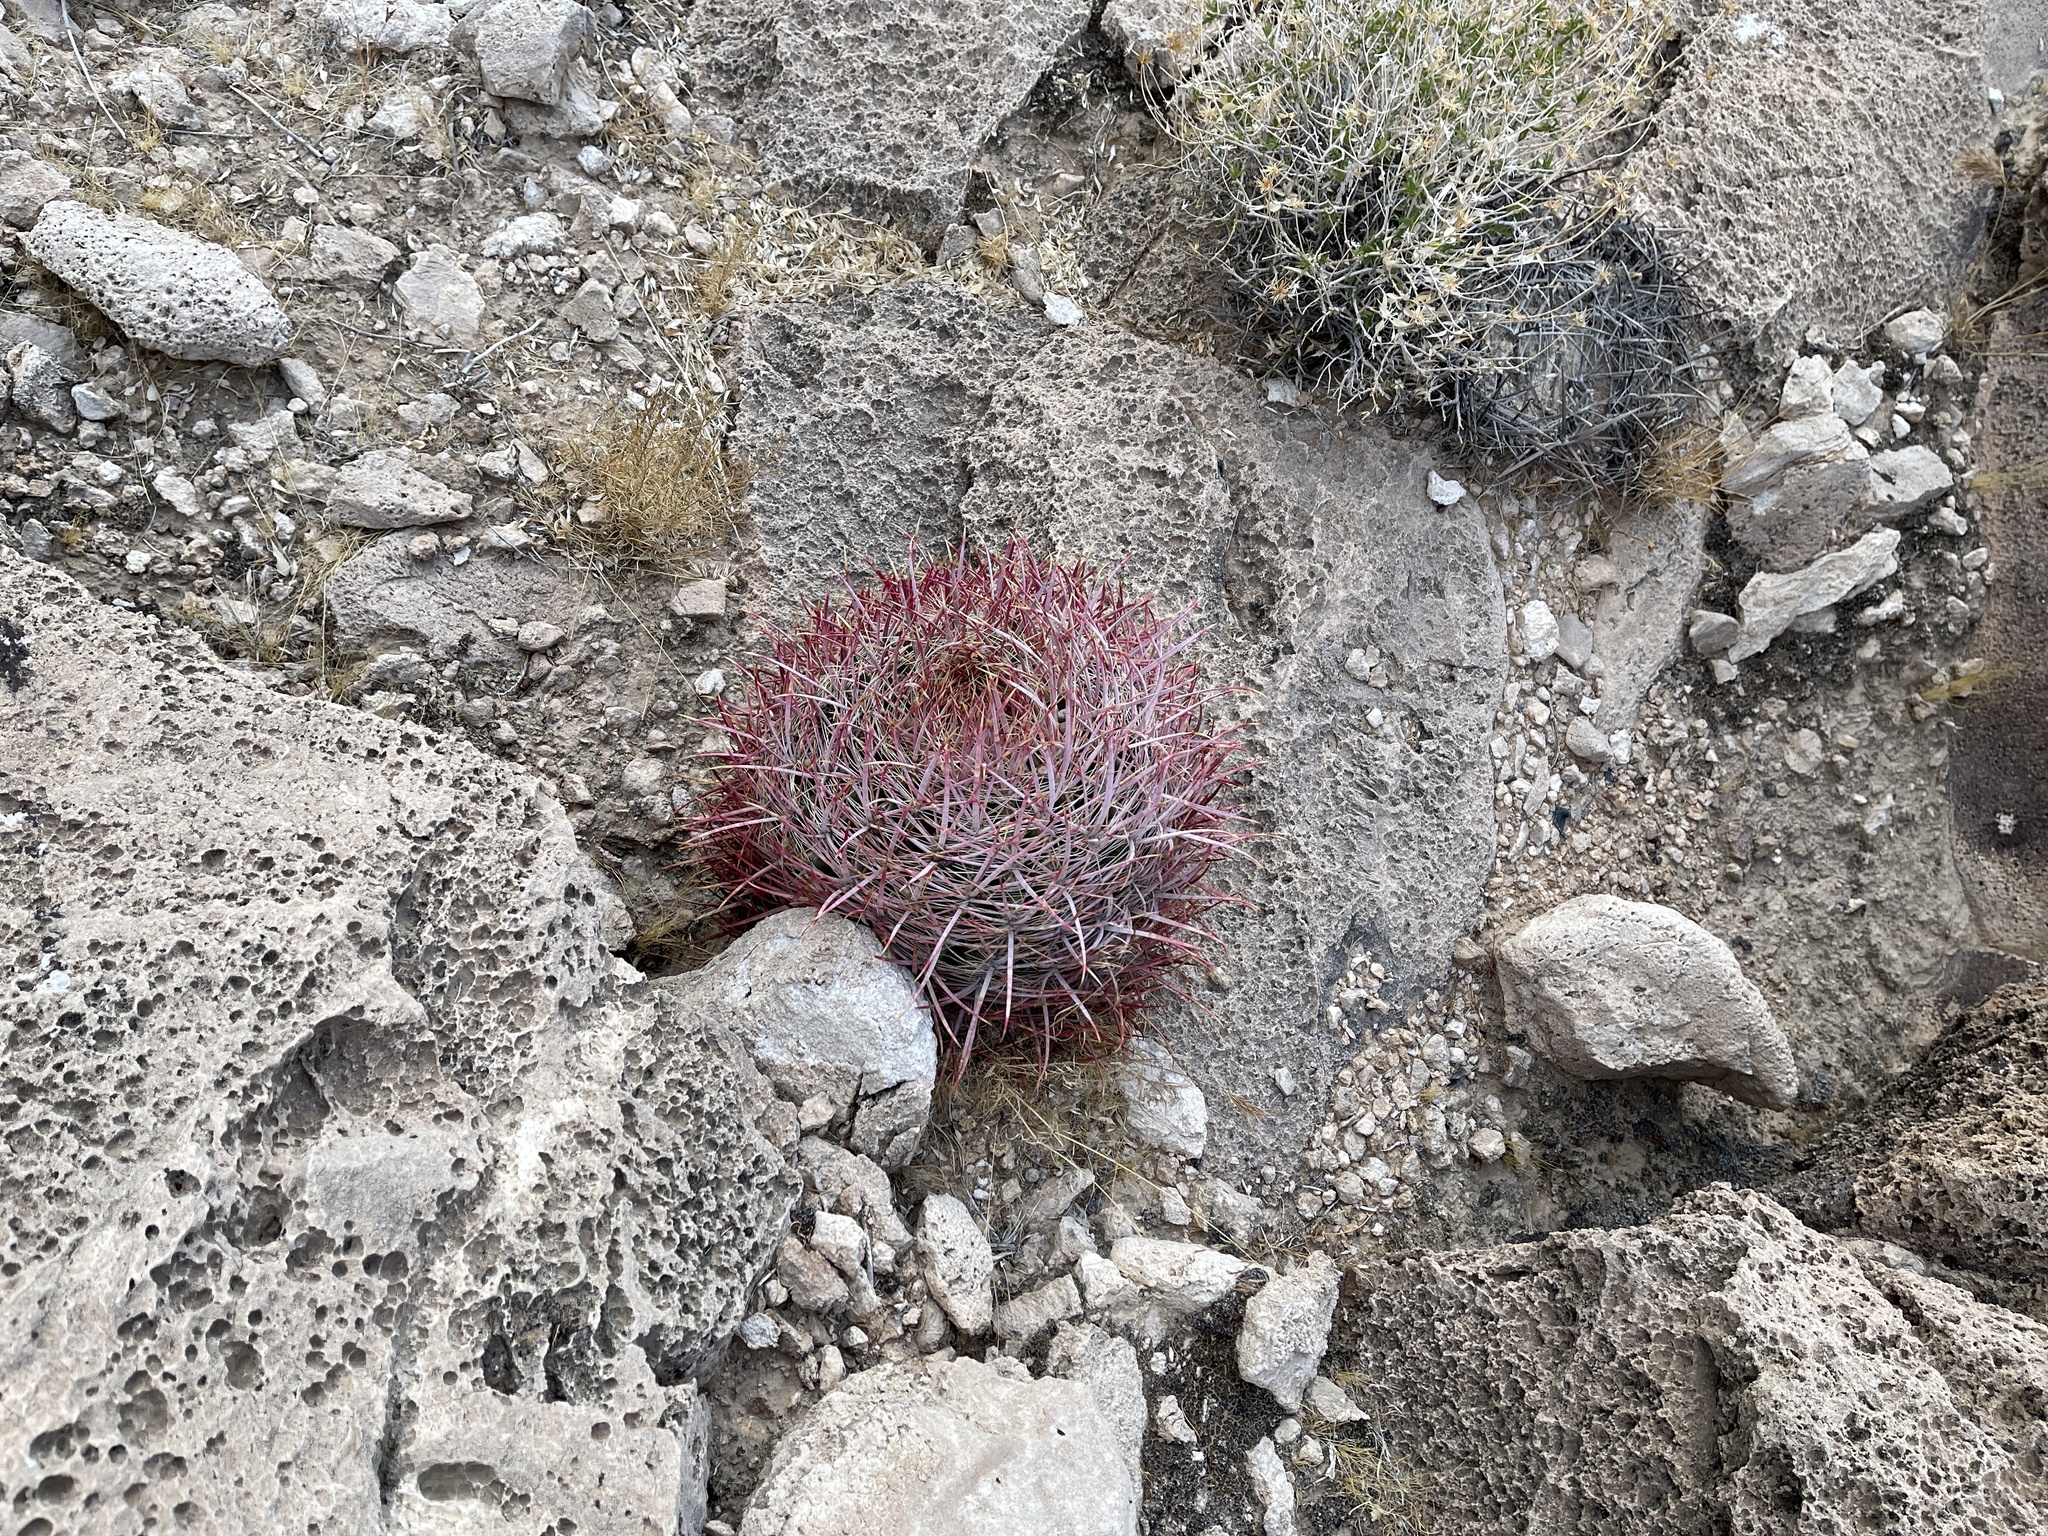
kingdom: Plantae
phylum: Tracheophyta
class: Magnoliopsida
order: Caryophyllales
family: Cactaceae
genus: Ferocactus
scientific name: Ferocactus cylindraceus
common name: California barrel cactus
